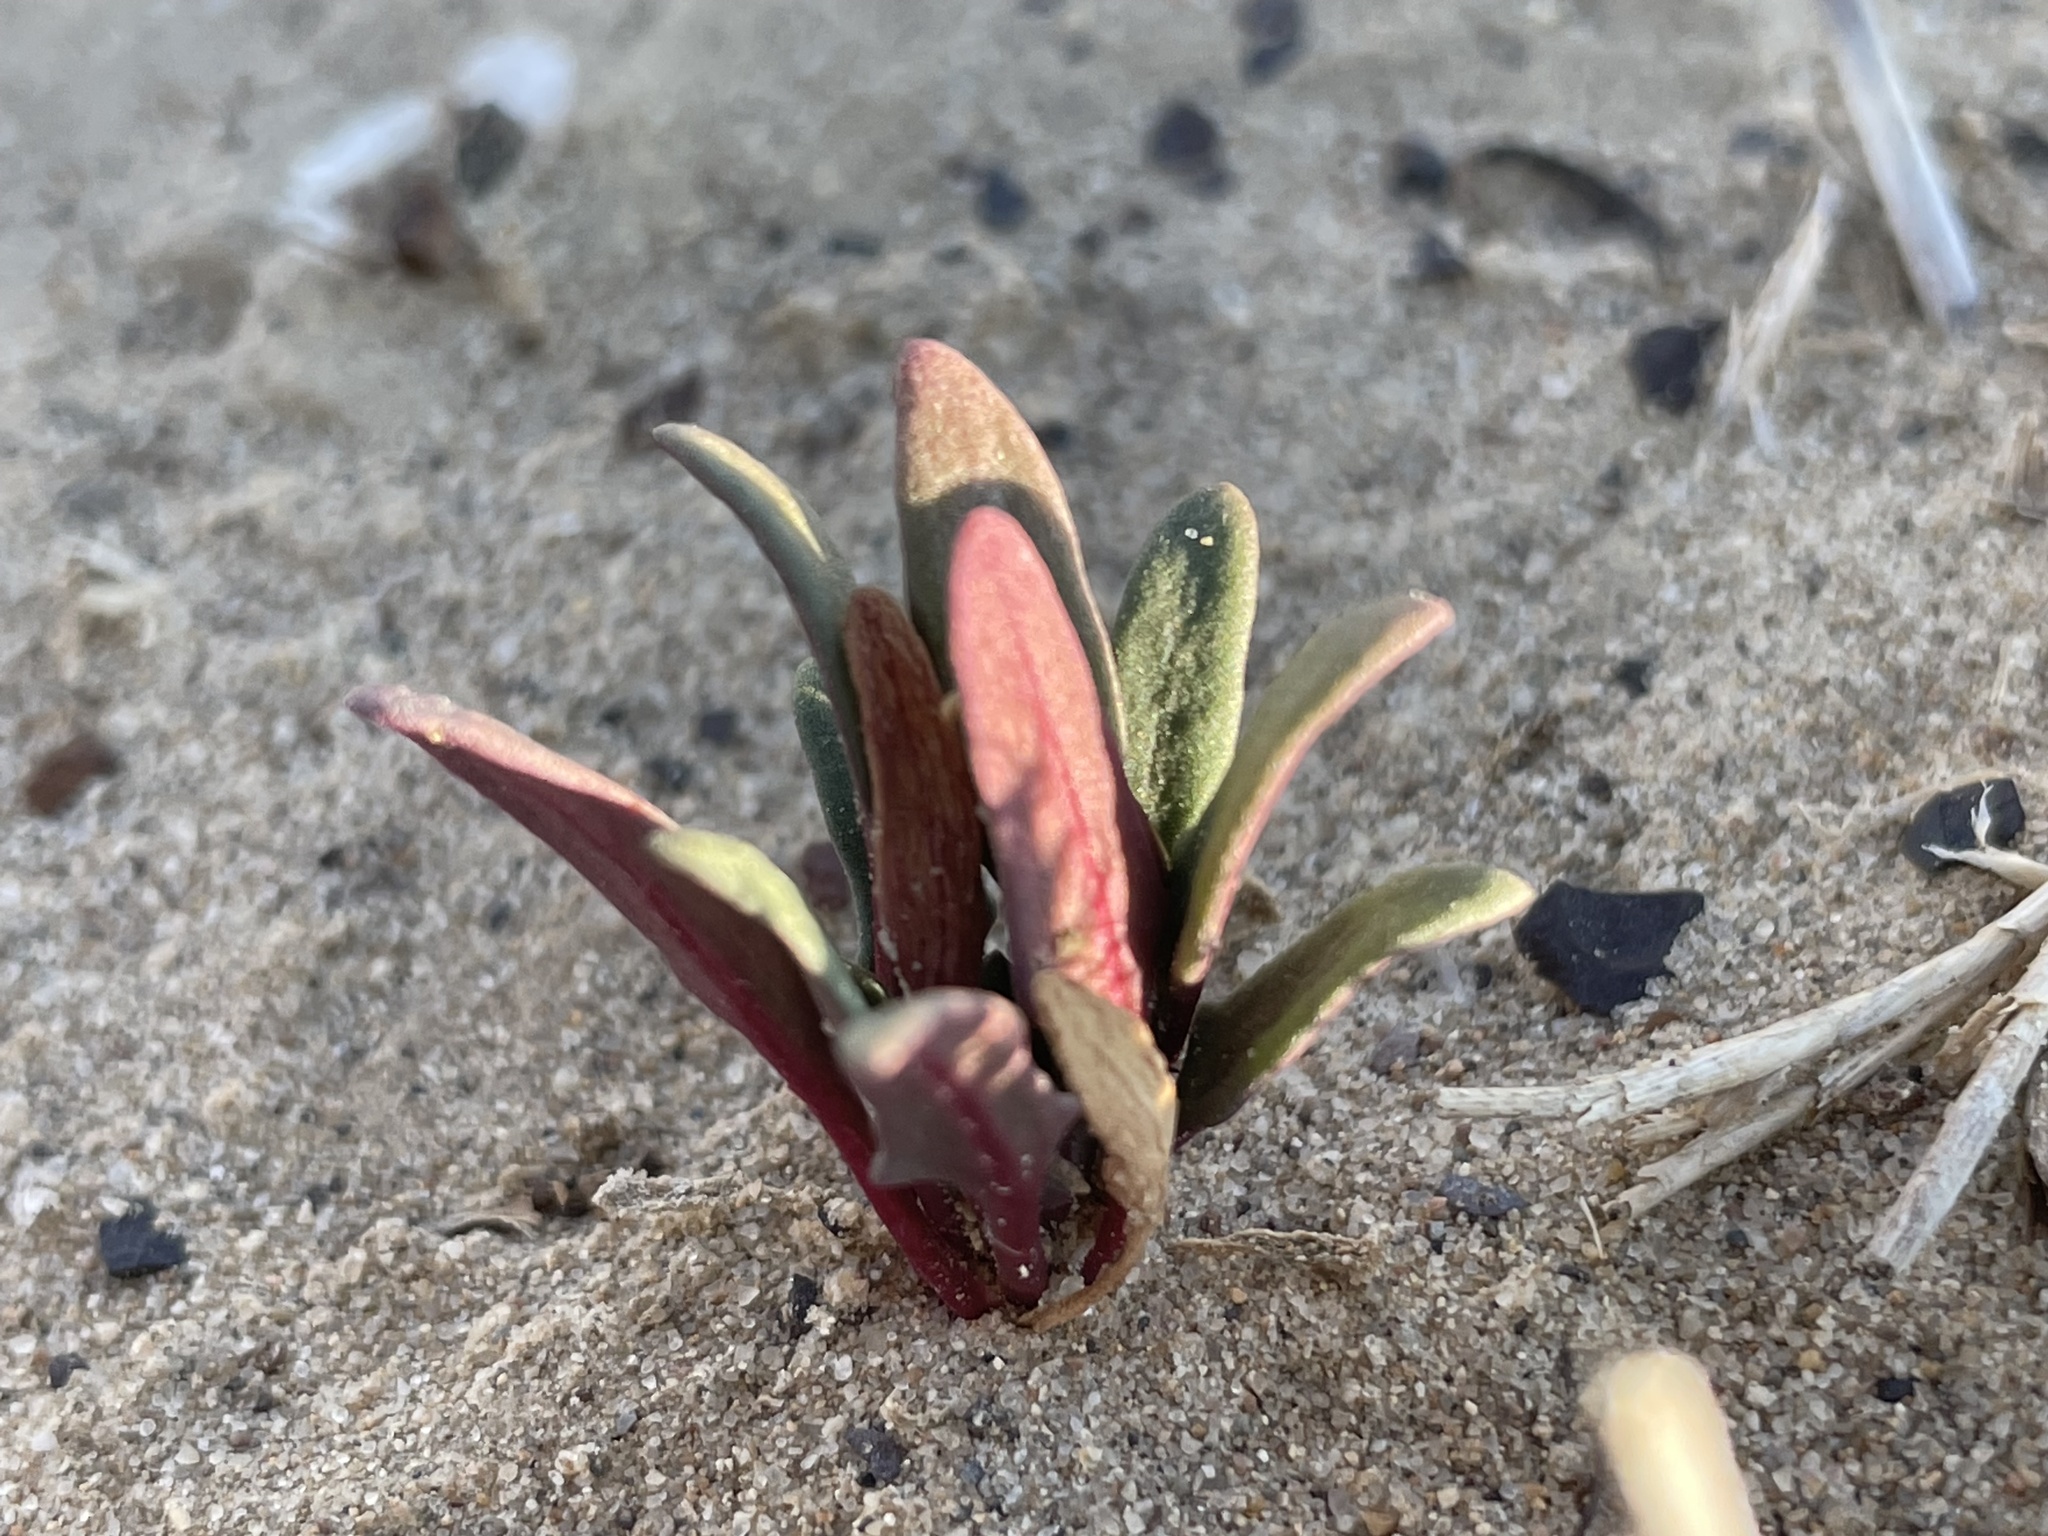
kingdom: Plantae
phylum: Tracheophyta
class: Magnoliopsida
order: Caryophyllales
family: Amaranthaceae
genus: Blitum
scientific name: Blitum nuttallianum
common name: Poverty-weed
